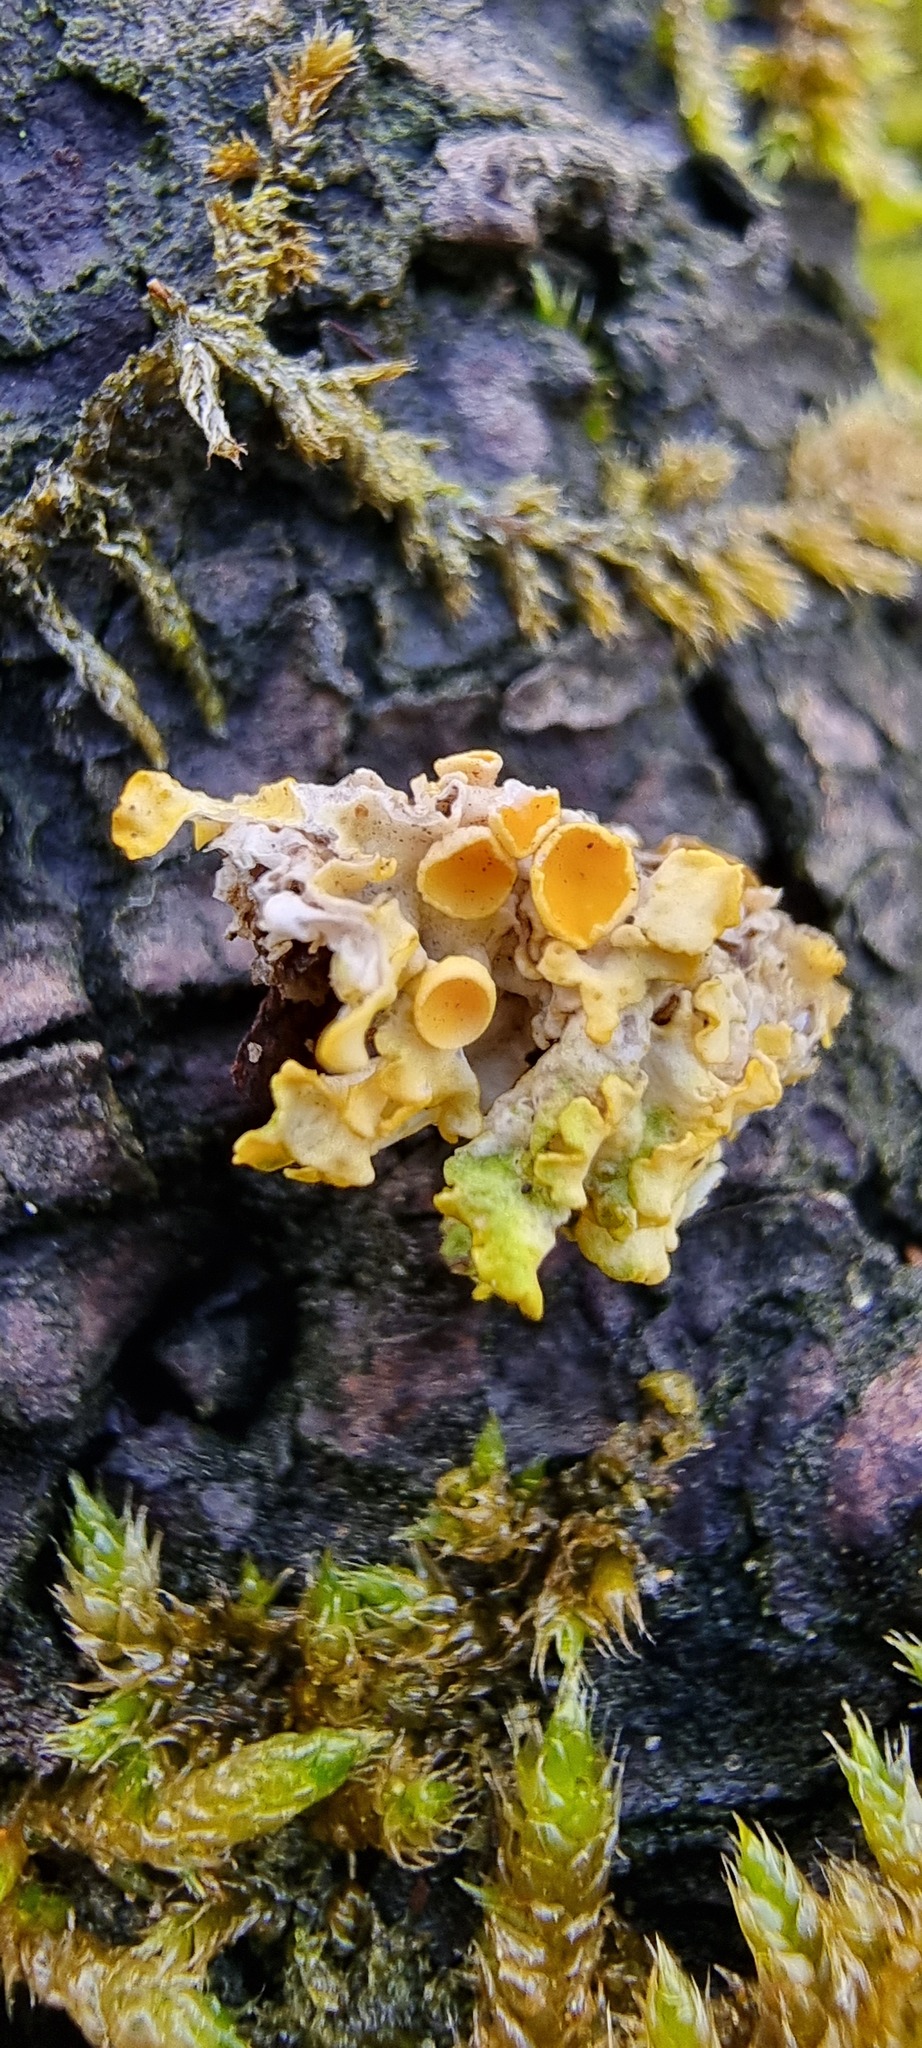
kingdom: Fungi
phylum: Ascomycota
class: Lecanoromycetes
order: Teloschistales
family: Teloschistaceae
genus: Xanthoria
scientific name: Xanthoria parietina
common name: Common orange lichen
